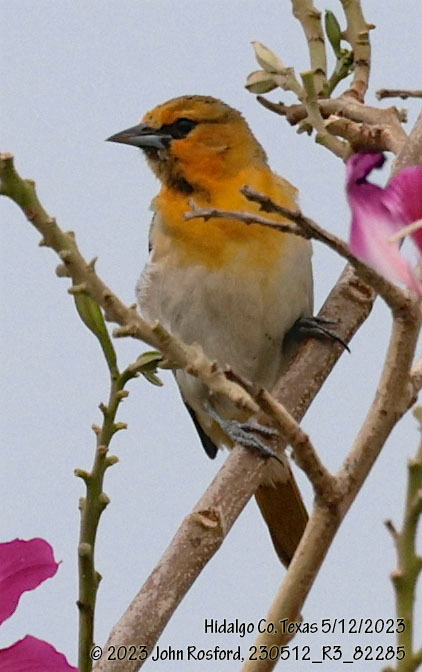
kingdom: Animalia
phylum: Chordata
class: Aves
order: Passeriformes
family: Icteridae
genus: Icterus
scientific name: Icterus bullockii
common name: Bullock's oriole
